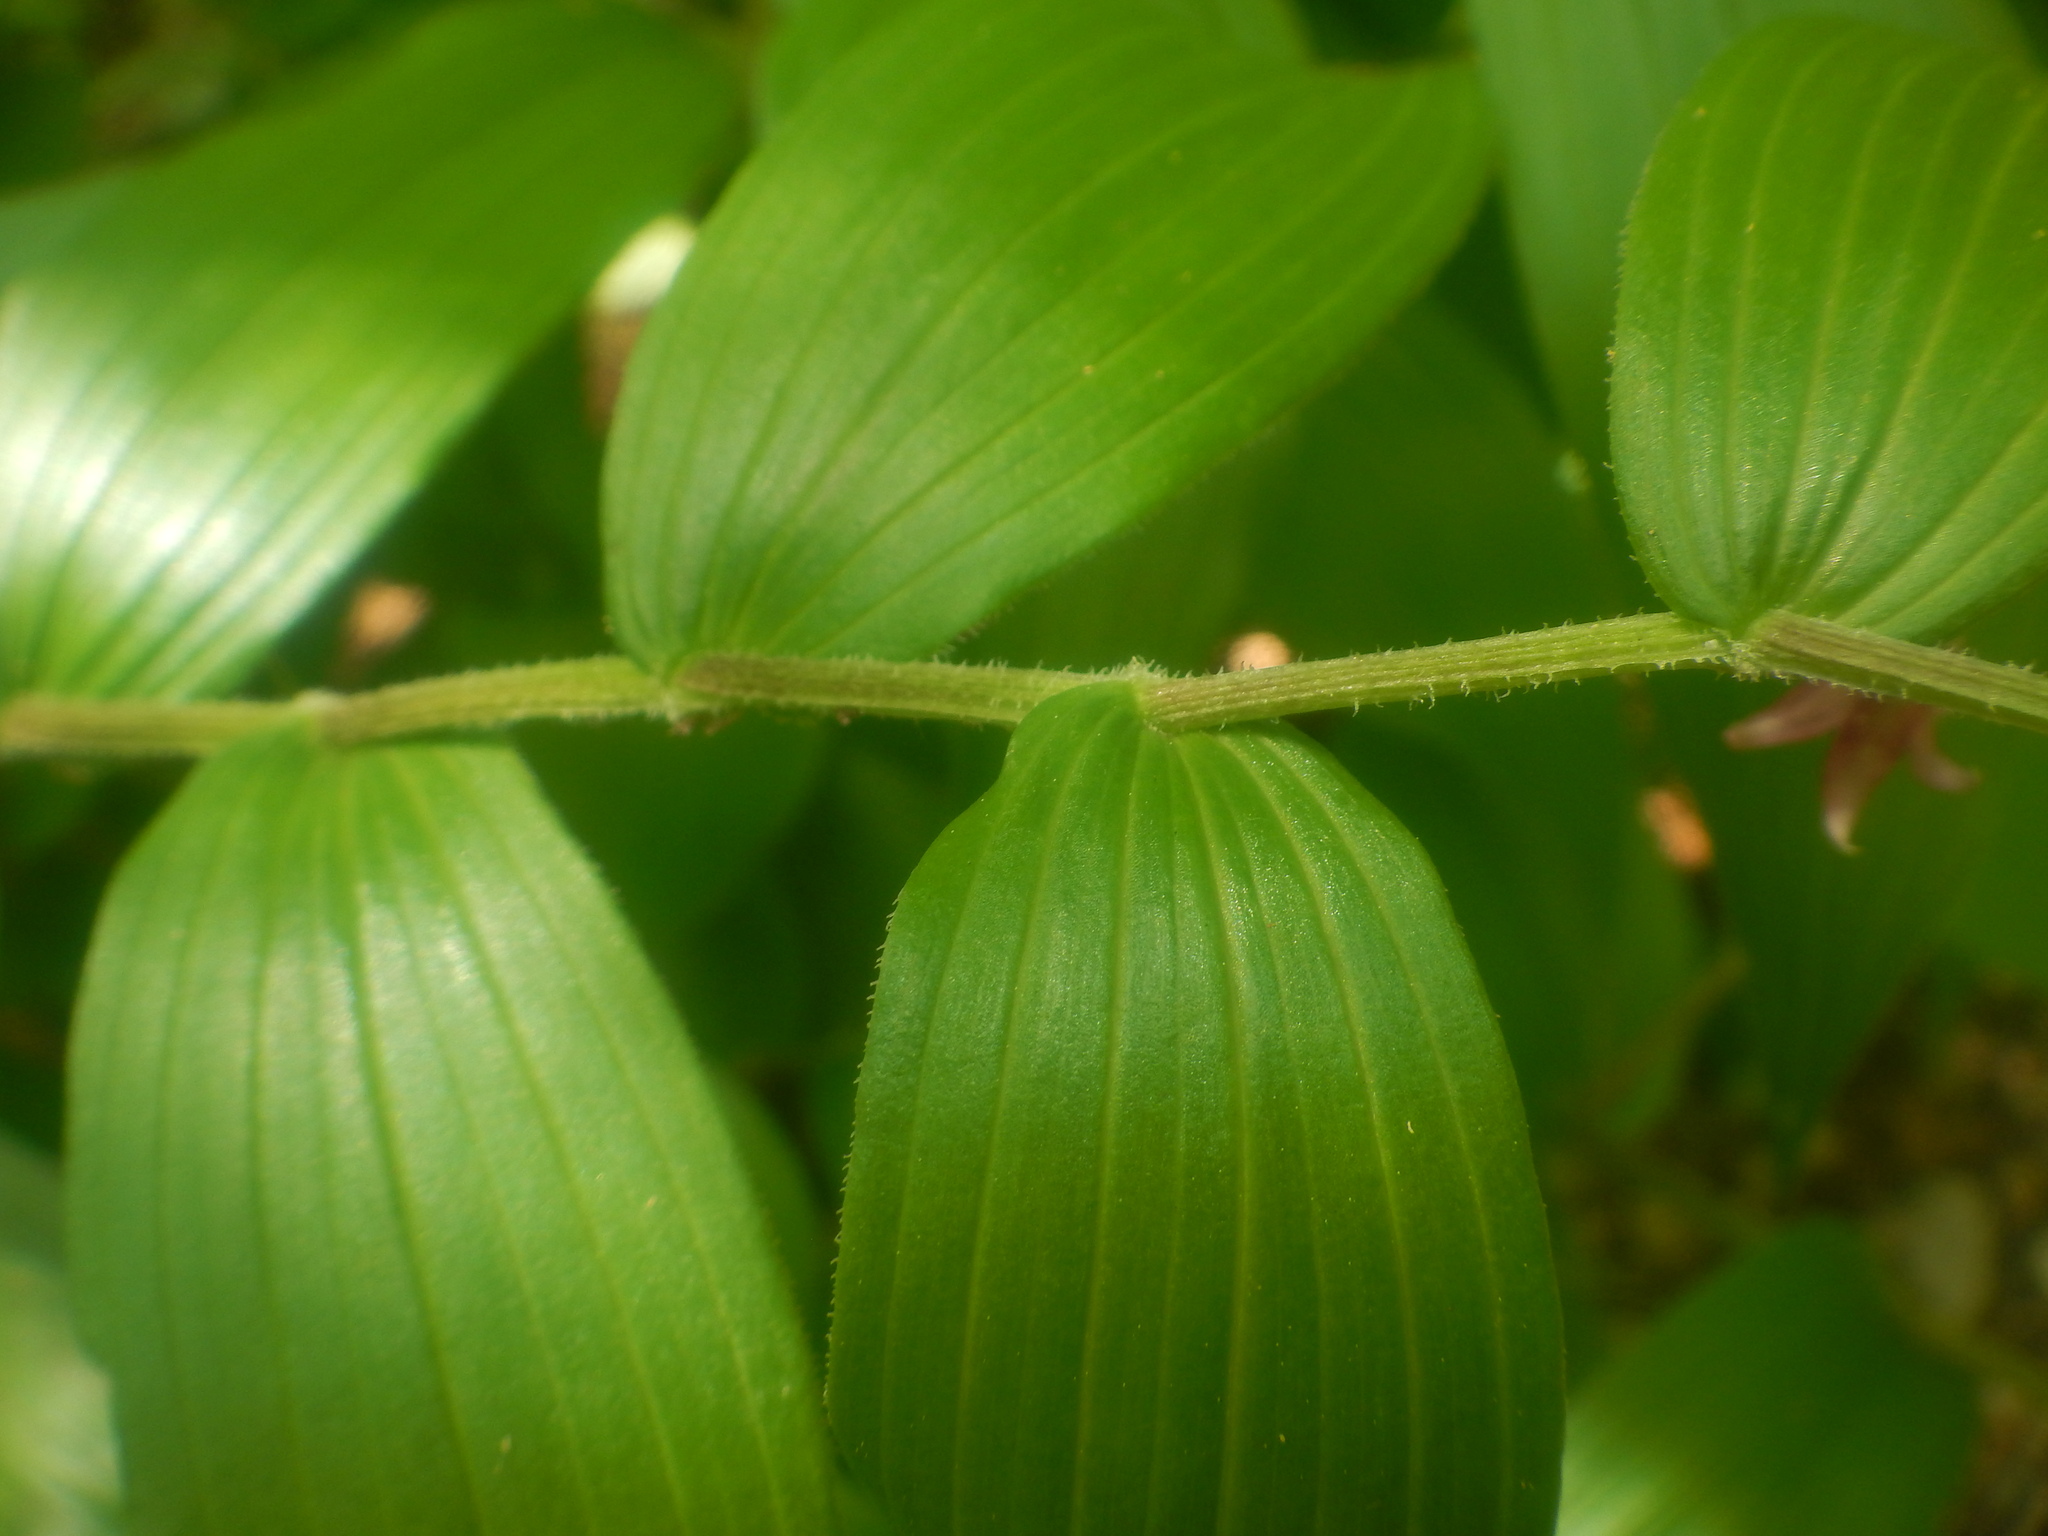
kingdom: Plantae
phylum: Tracheophyta
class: Liliopsida
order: Liliales
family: Liliaceae
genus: Streptopus
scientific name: Streptopus lanceolatus
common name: Rose mandarin
